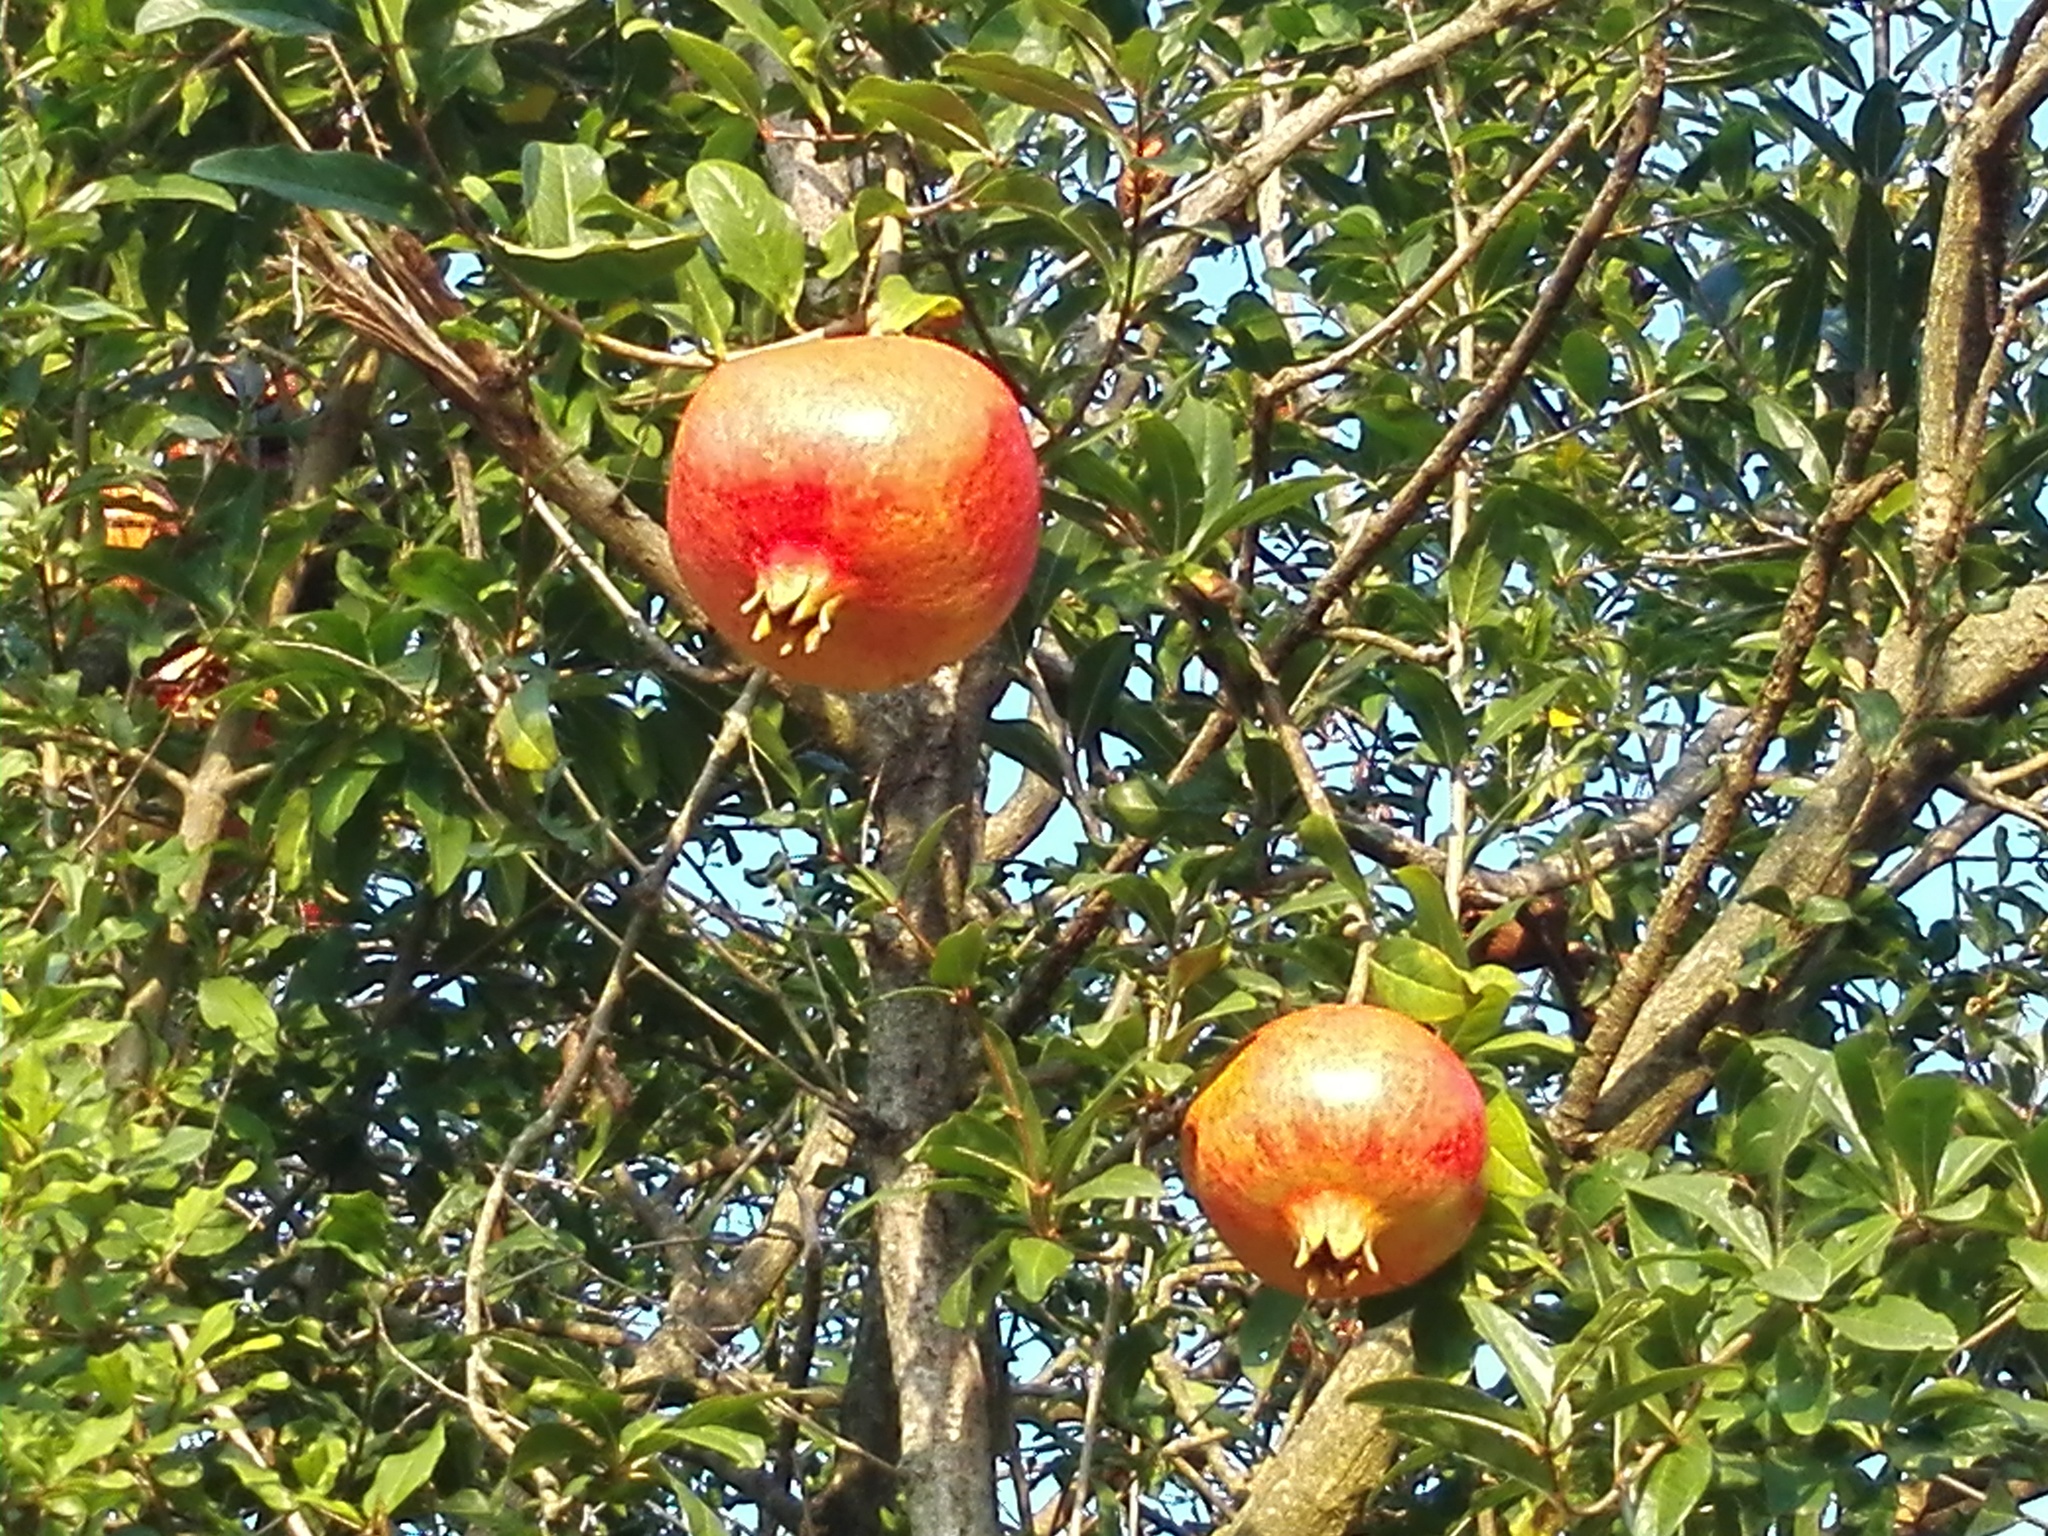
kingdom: Plantae
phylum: Tracheophyta
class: Magnoliopsida
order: Myrtales
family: Lythraceae
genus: Punica
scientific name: Punica granatum
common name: Pomegranate
